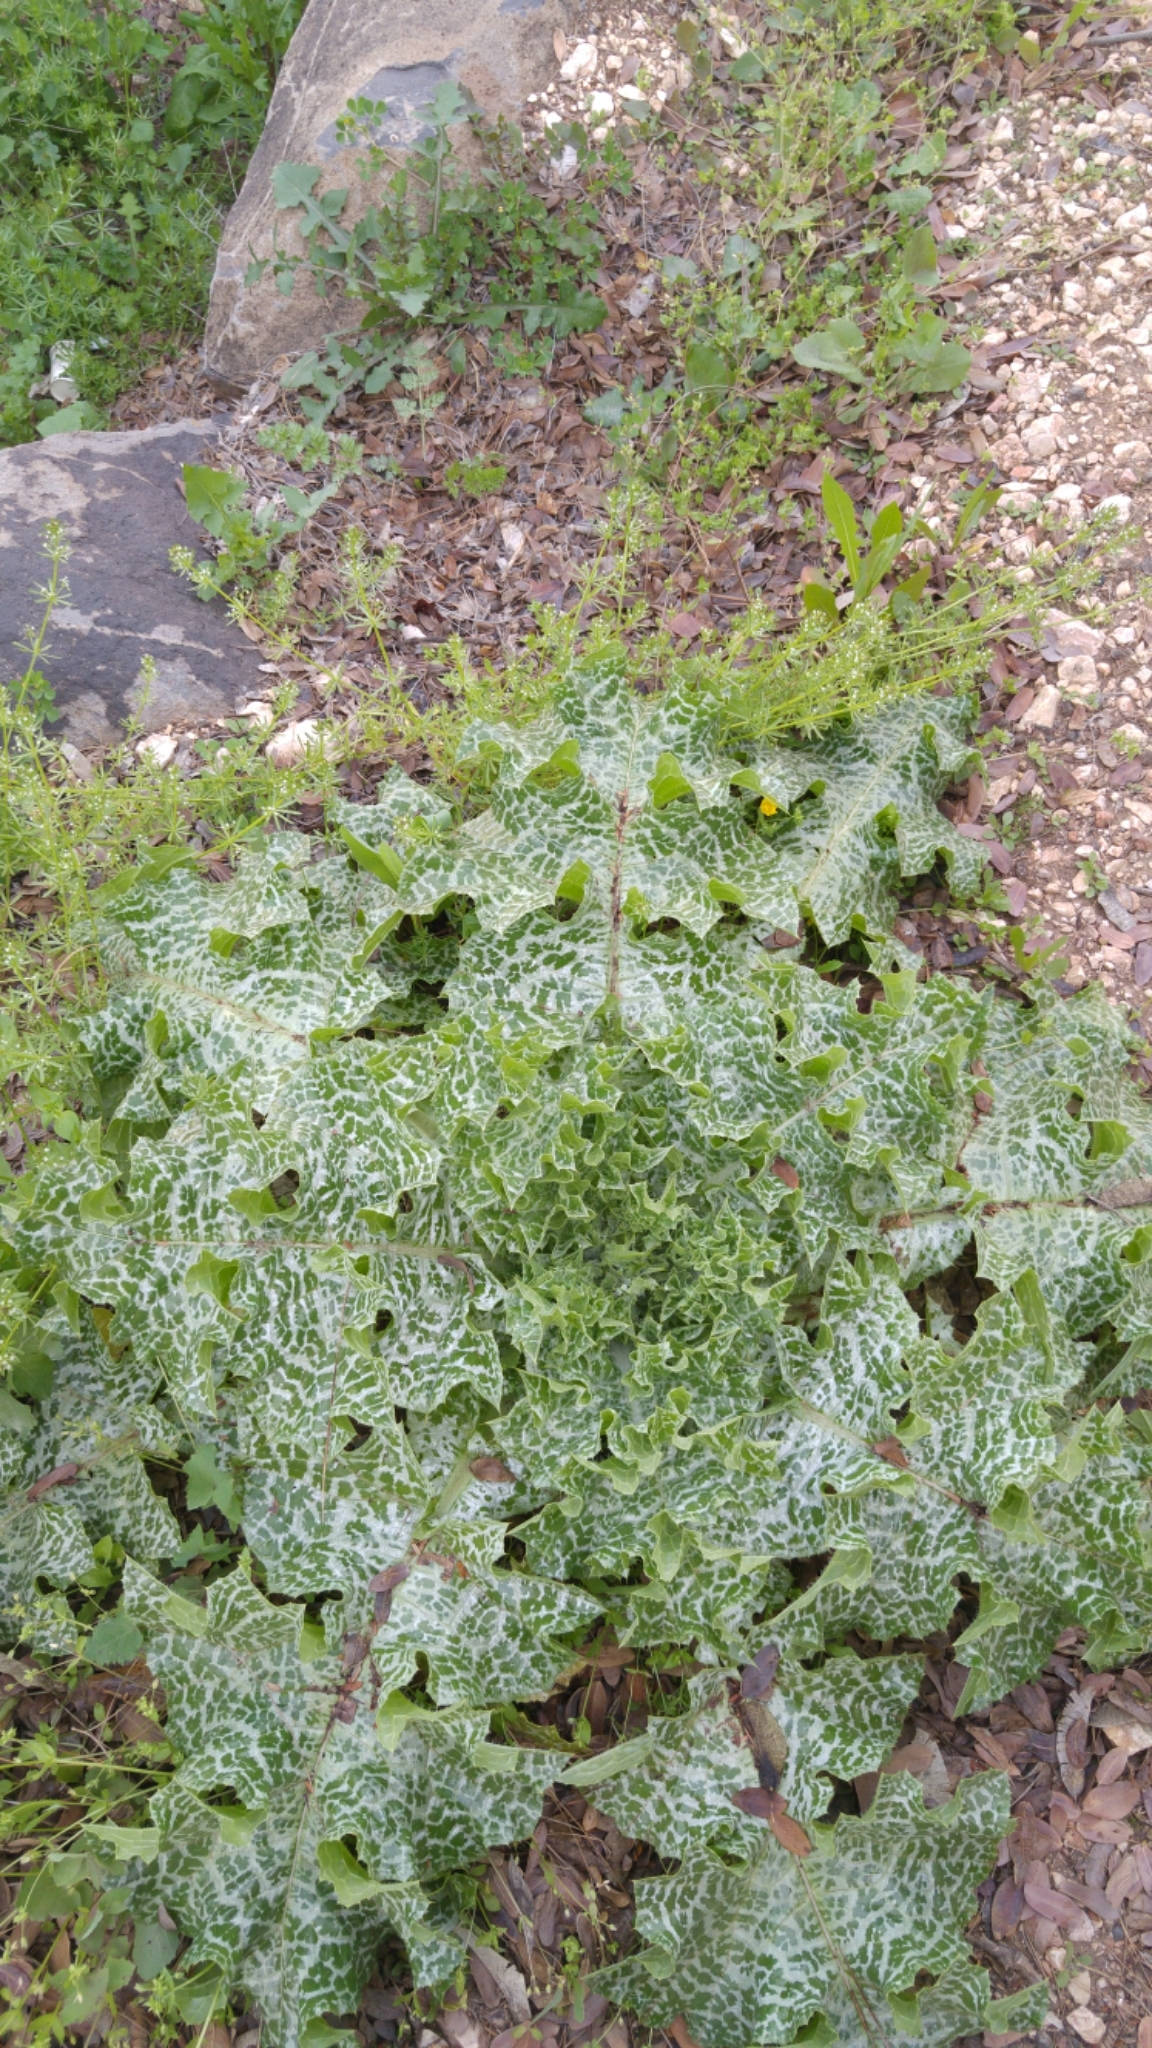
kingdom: Plantae
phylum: Tracheophyta
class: Magnoliopsida
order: Asterales
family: Asteraceae
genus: Silybum
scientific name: Silybum marianum
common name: Milk thistle
